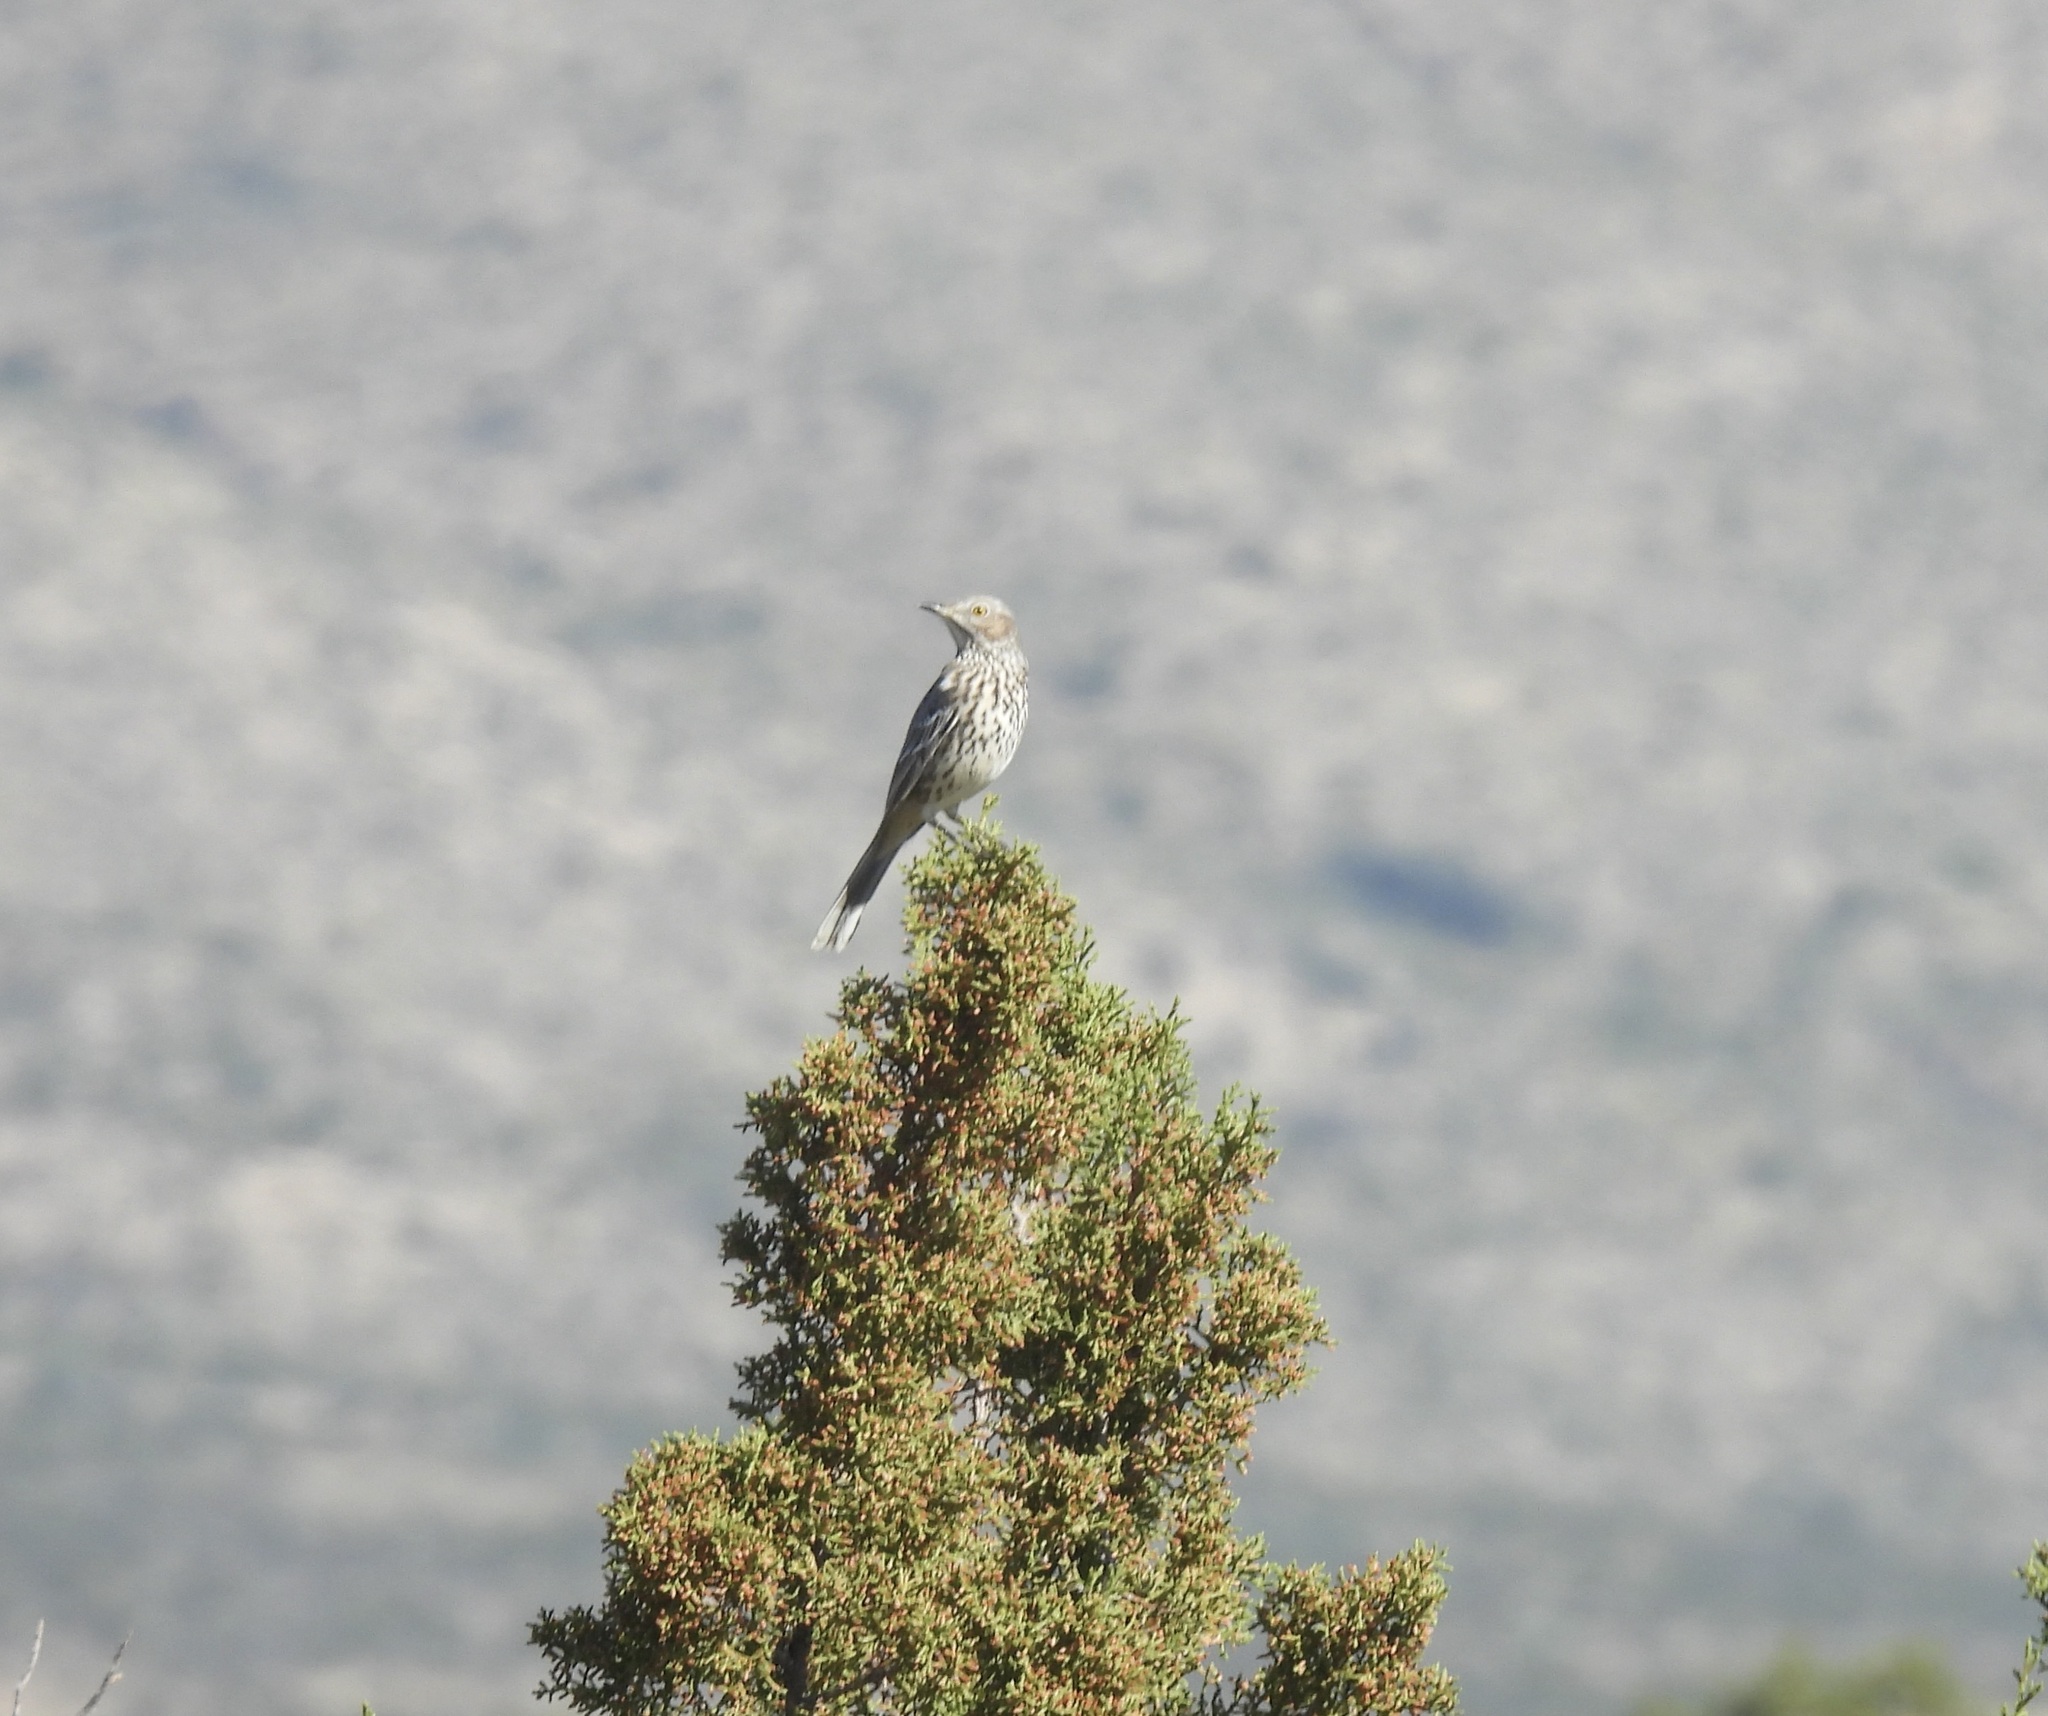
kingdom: Animalia
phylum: Chordata
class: Aves
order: Passeriformes
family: Mimidae
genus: Oreoscoptes
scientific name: Oreoscoptes montanus
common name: Sage thrasher
